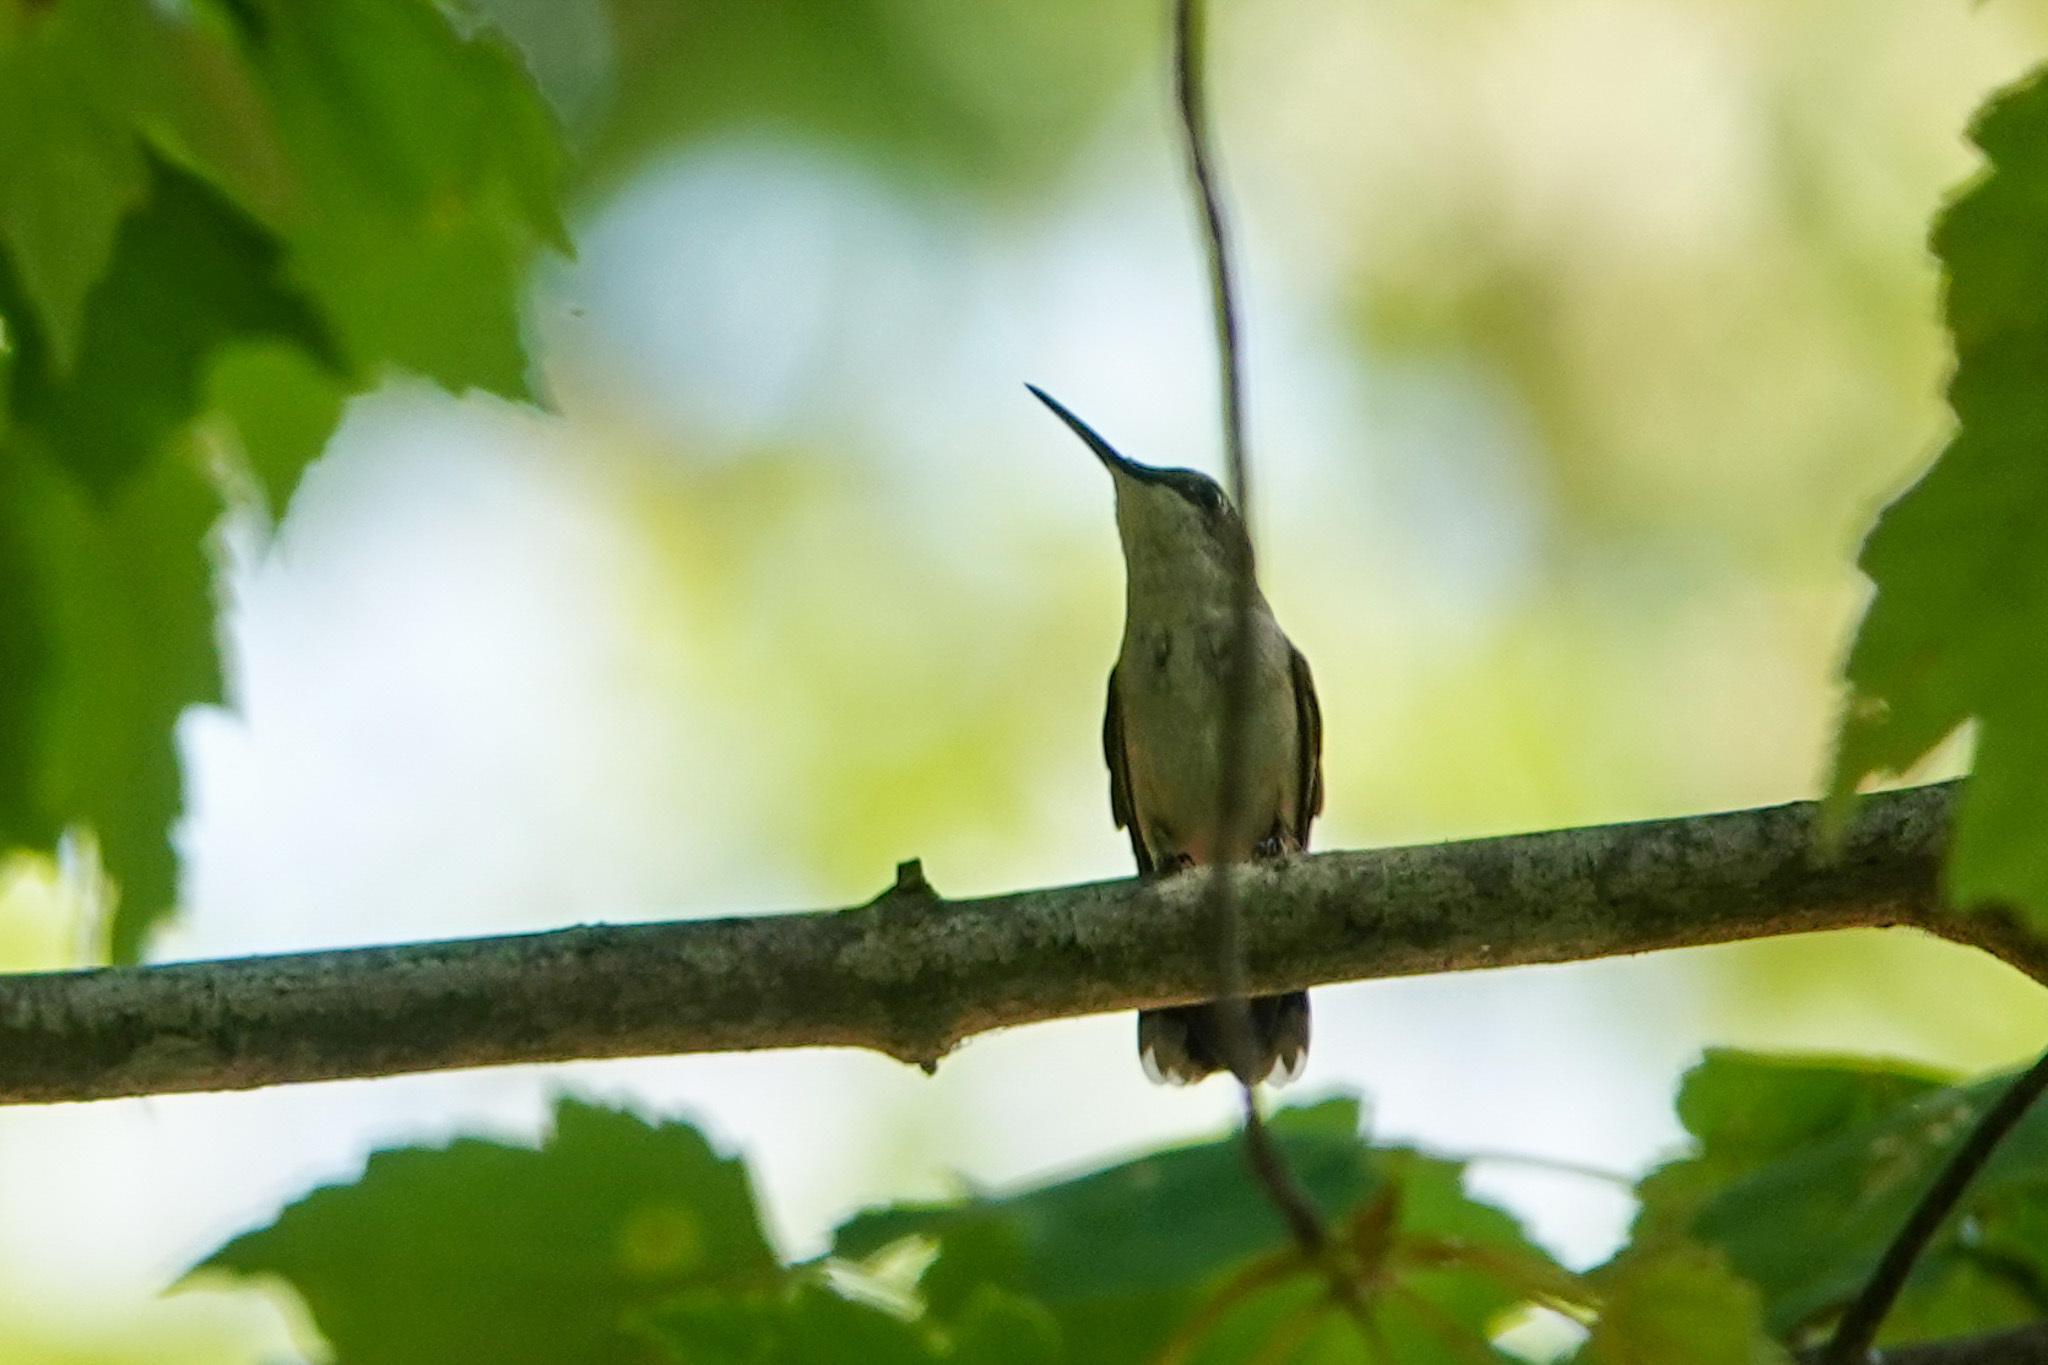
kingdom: Animalia
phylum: Chordata
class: Aves
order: Apodiformes
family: Trochilidae
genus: Archilochus
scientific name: Archilochus colubris
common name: Ruby-throated hummingbird
